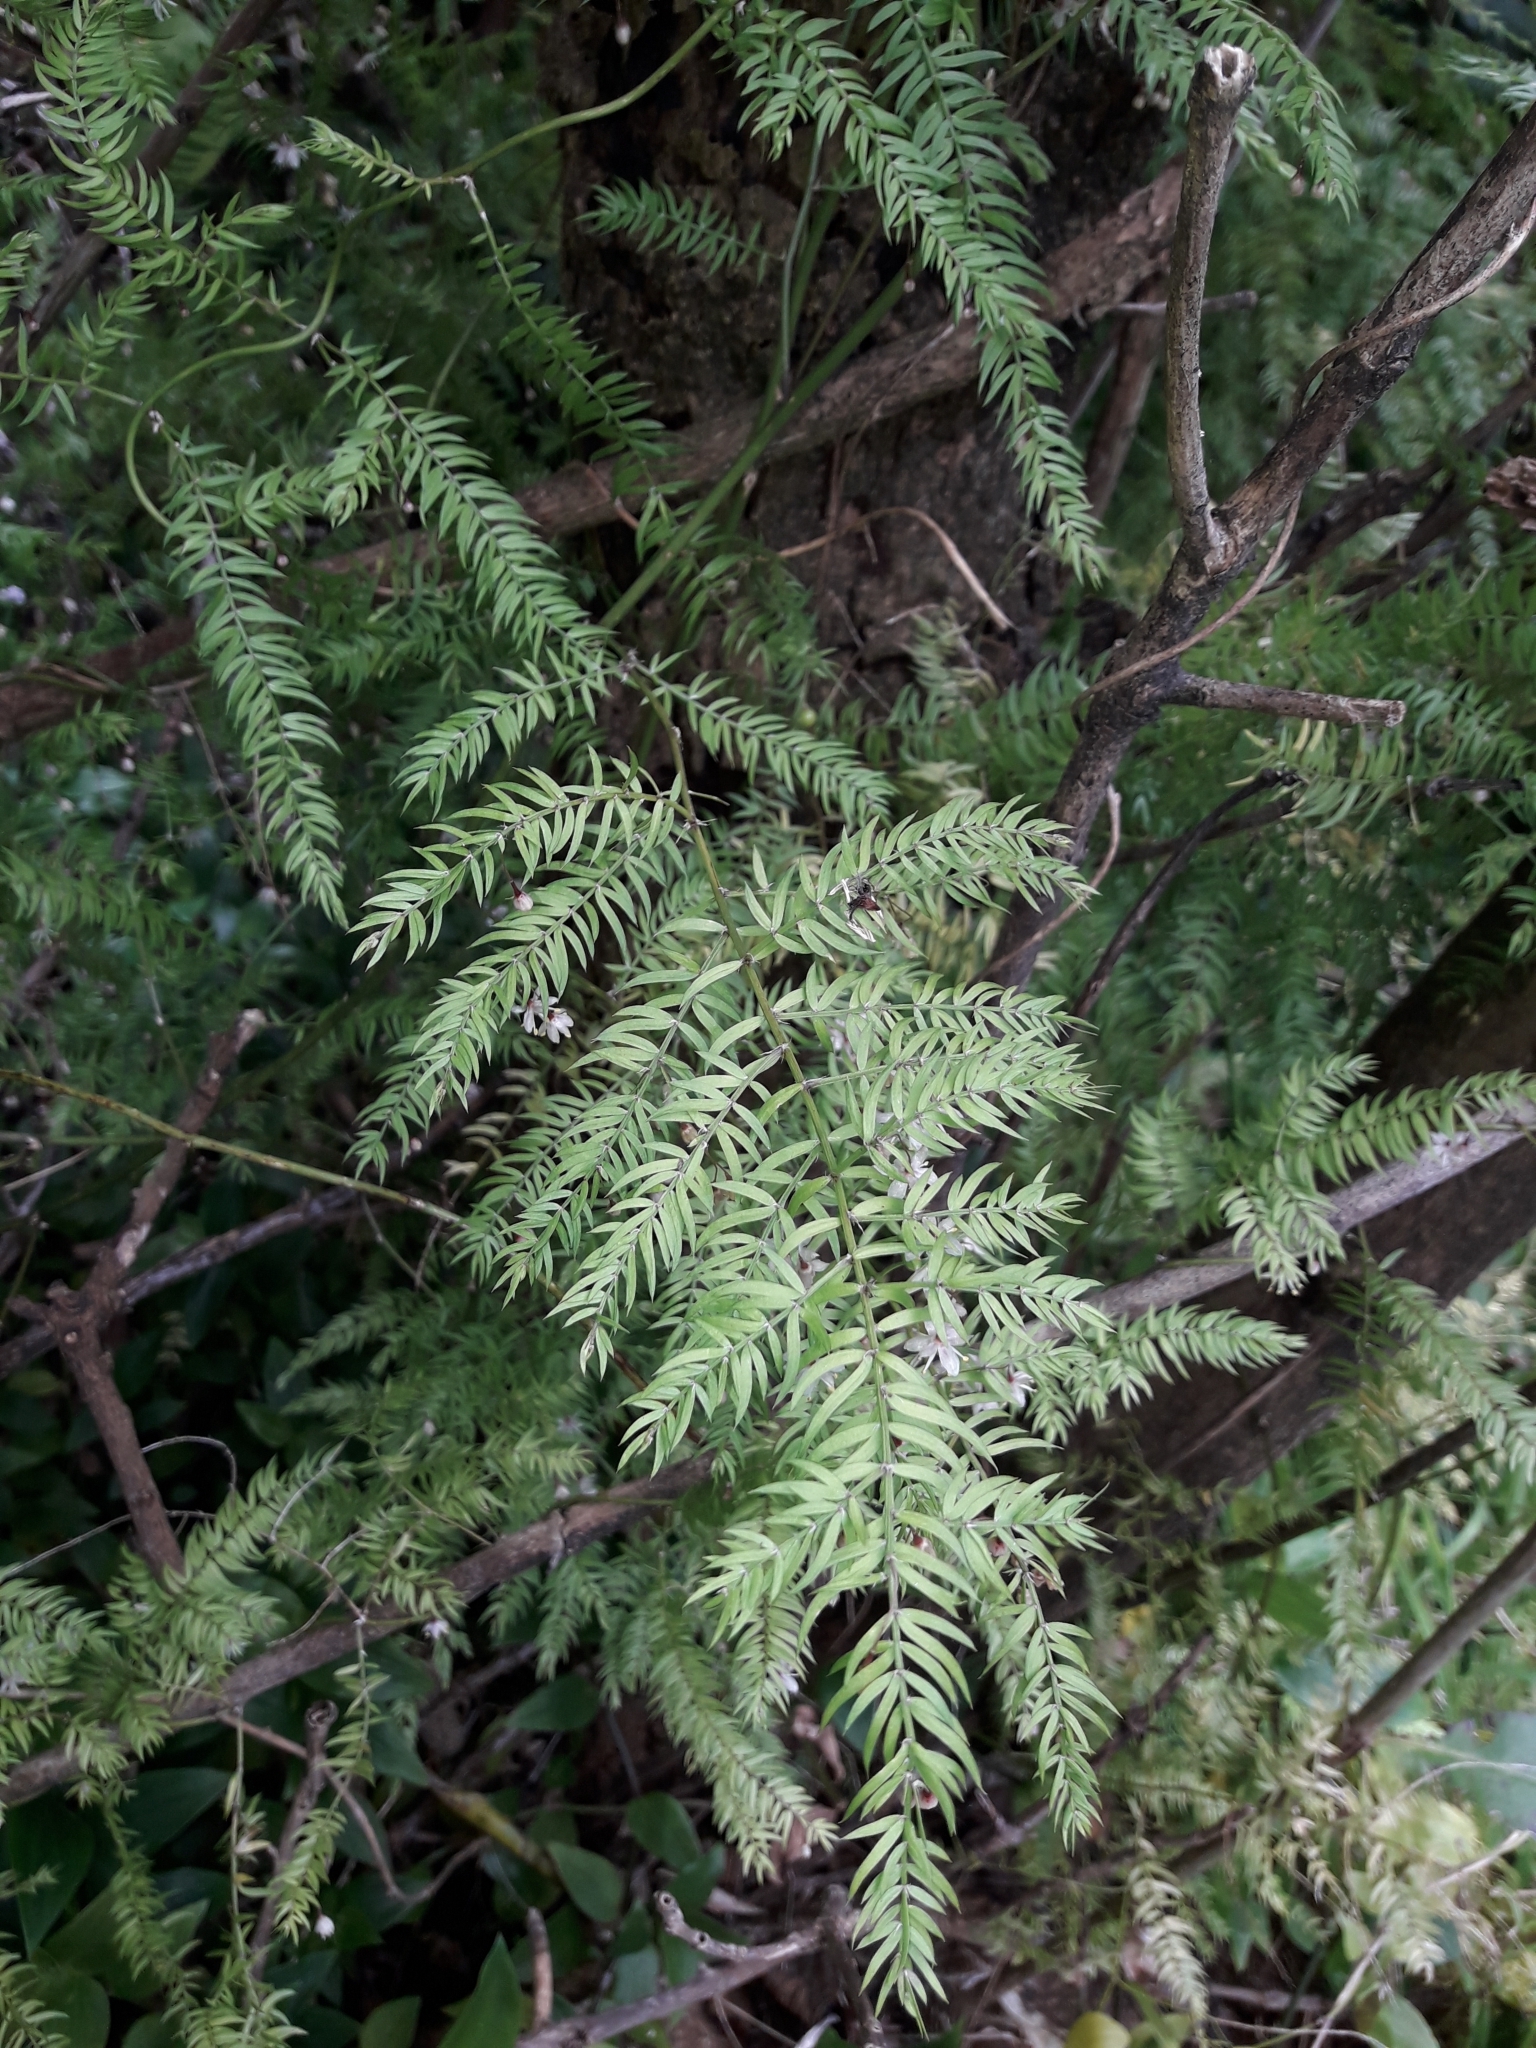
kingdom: Plantae
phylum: Tracheophyta
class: Liliopsida
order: Asparagales
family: Asparagaceae
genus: Asparagus
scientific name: Asparagus scandens
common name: Asparagus-fern
